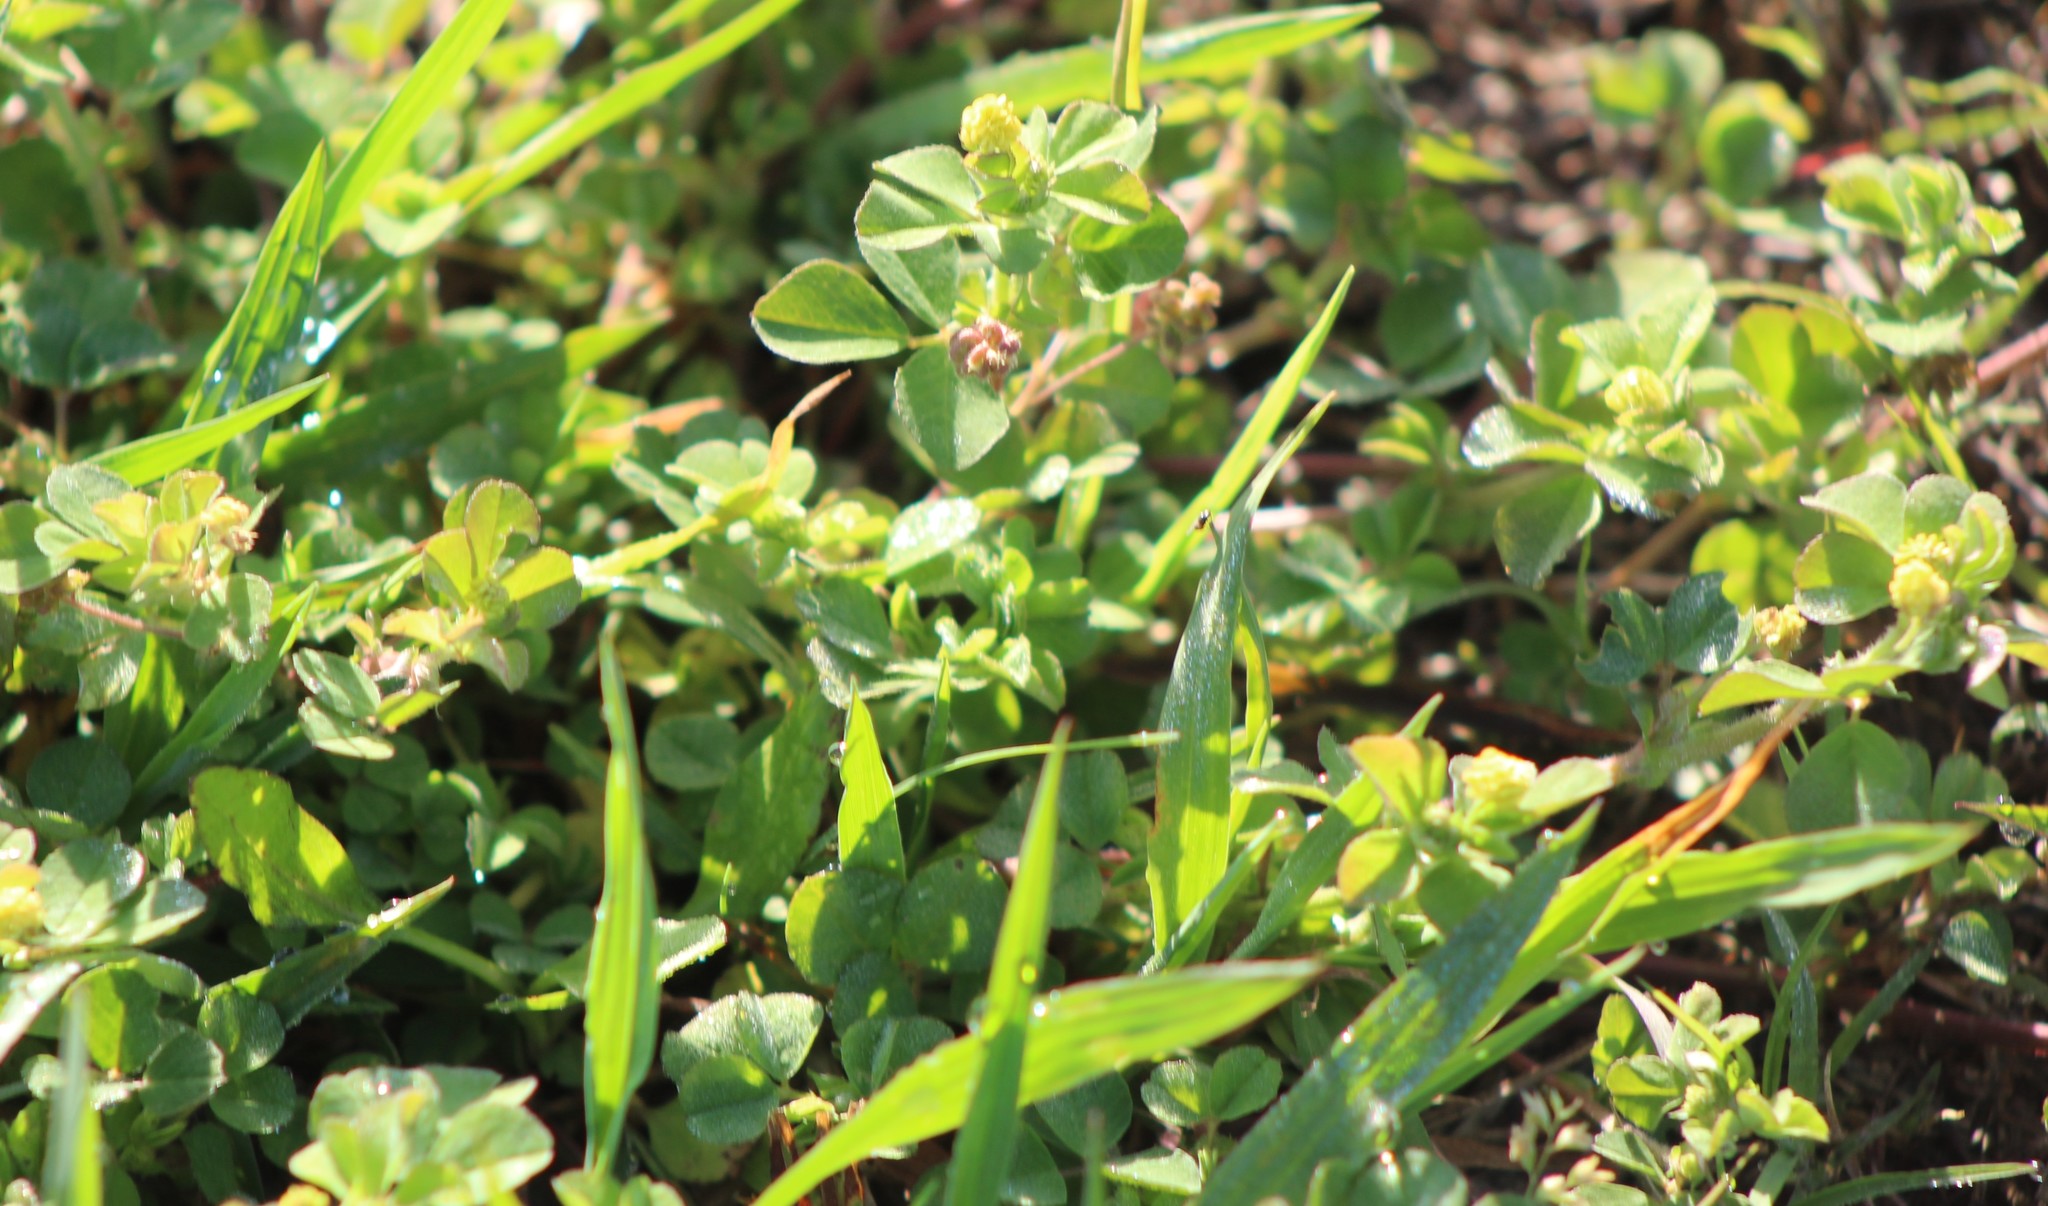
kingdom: Plantae
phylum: Tracheophyta
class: Magnoliopsida
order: Fabales
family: Fabaceae
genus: Medicago
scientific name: Medicago lupulina
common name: Black medick
